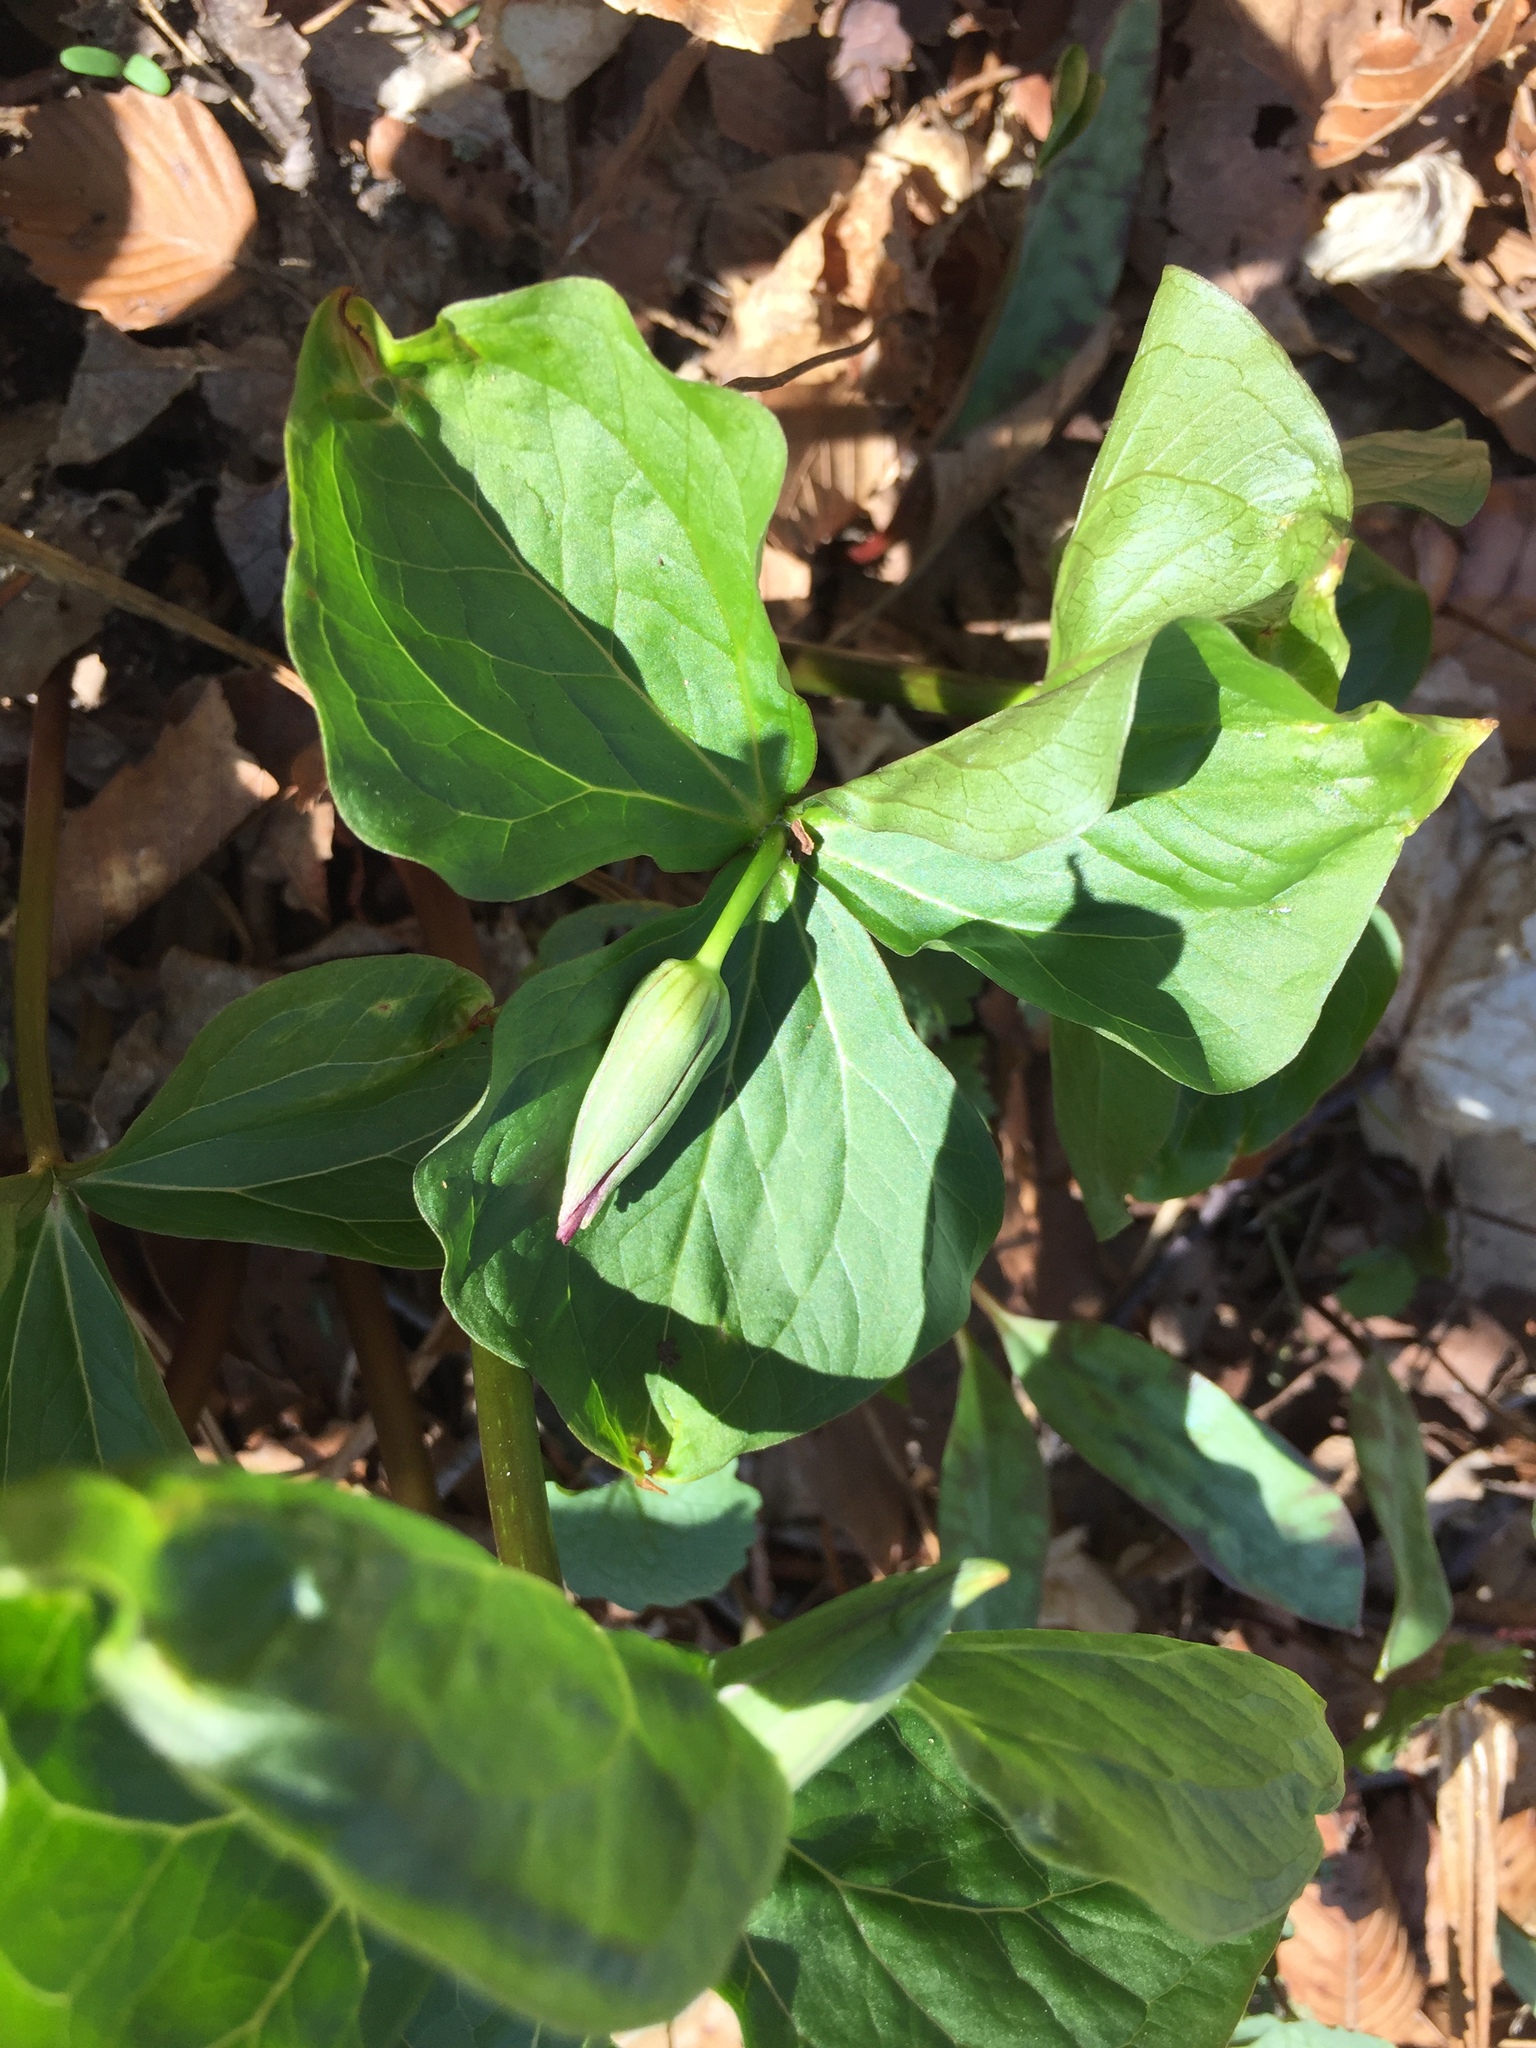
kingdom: Plantae
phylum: Tracheophyta
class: Liliopsida
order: Liliales
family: Melanthiaceae
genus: Trillium
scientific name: Trillium erectum
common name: Purple trillium
